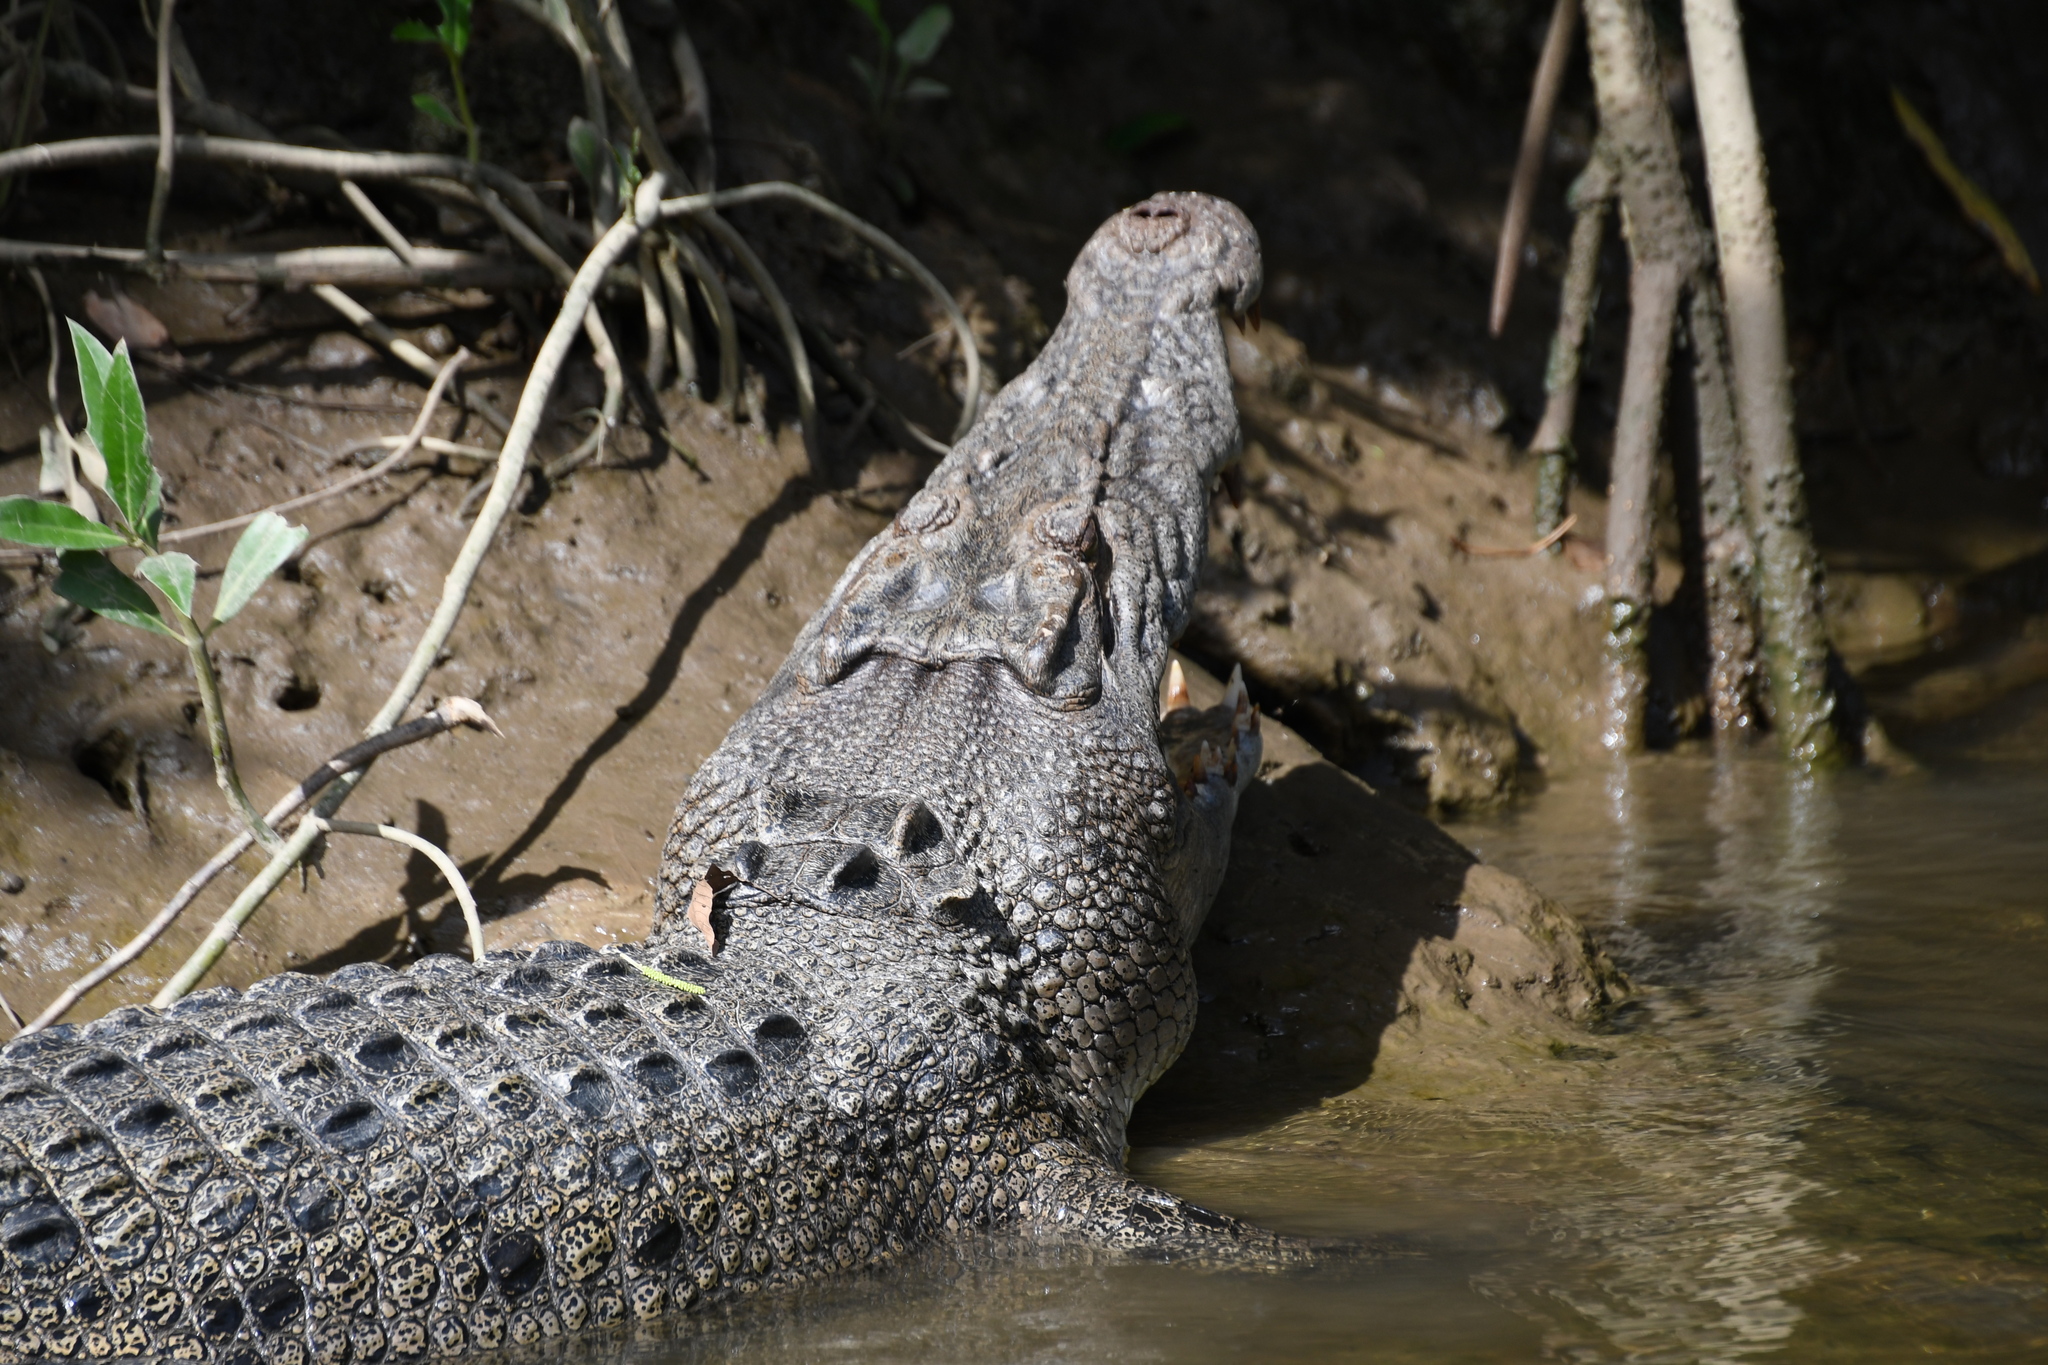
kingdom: Animalia
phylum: Chordata
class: Crocodylia
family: Crocodylidae
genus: Crocodylus
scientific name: Crocodylus porosus
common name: Saltwater crocodile
